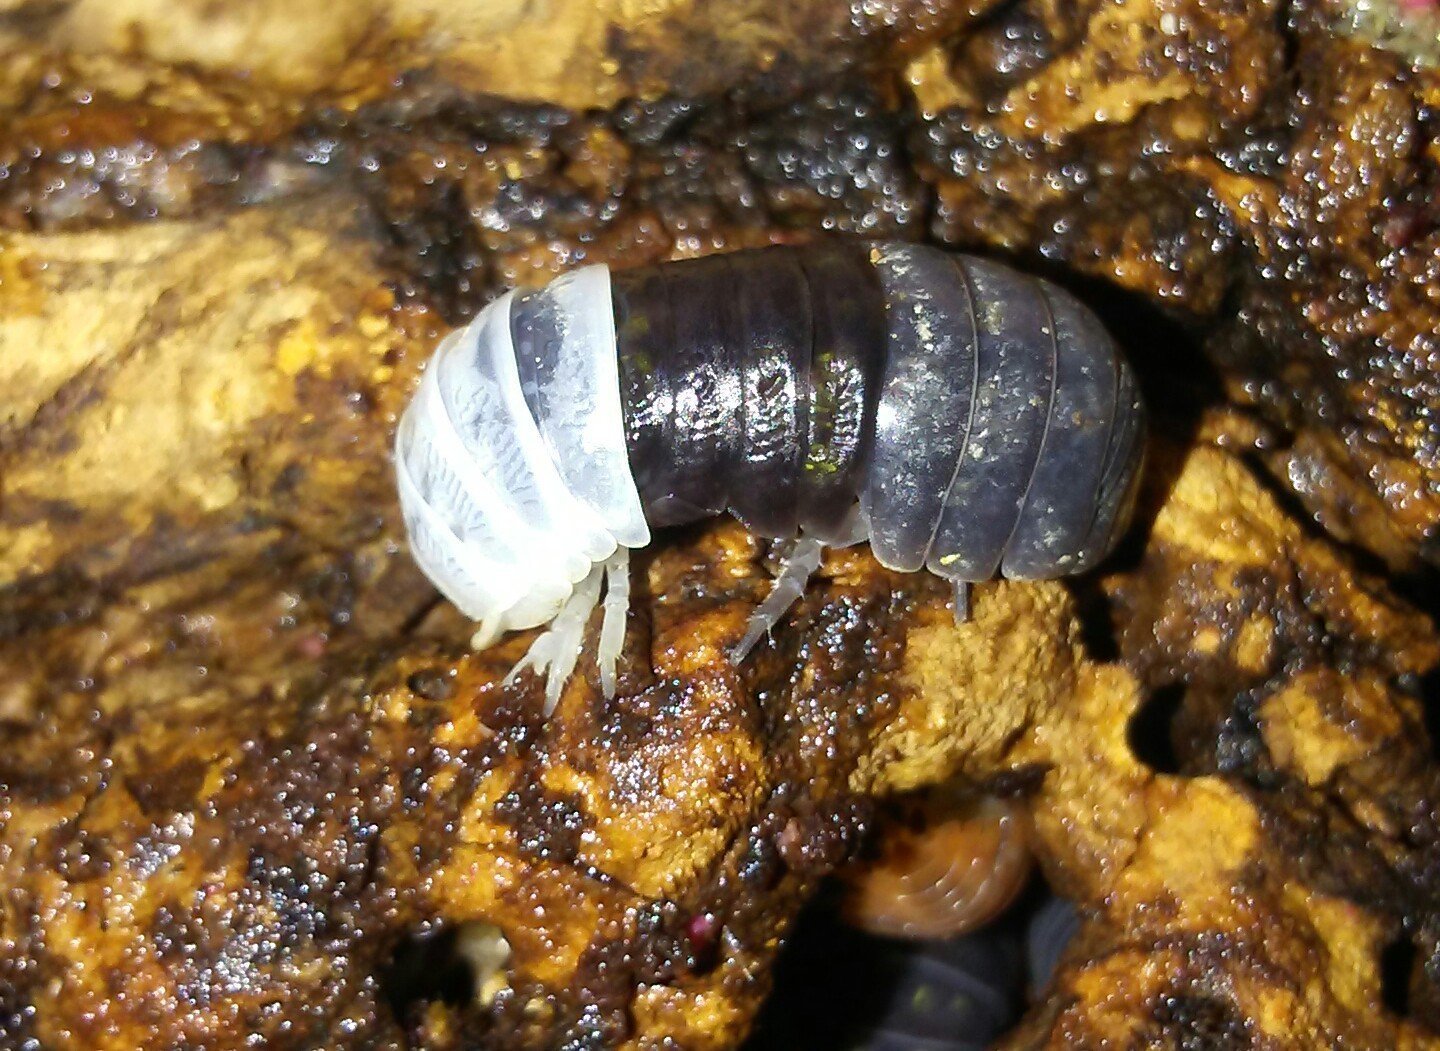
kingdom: Animalia
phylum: Arthropoda
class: Malacostraca
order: Isopoda
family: Armadillidiidae
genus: Armadillidium
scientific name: Armadillidium vulgare
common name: Common pill woodlouse
